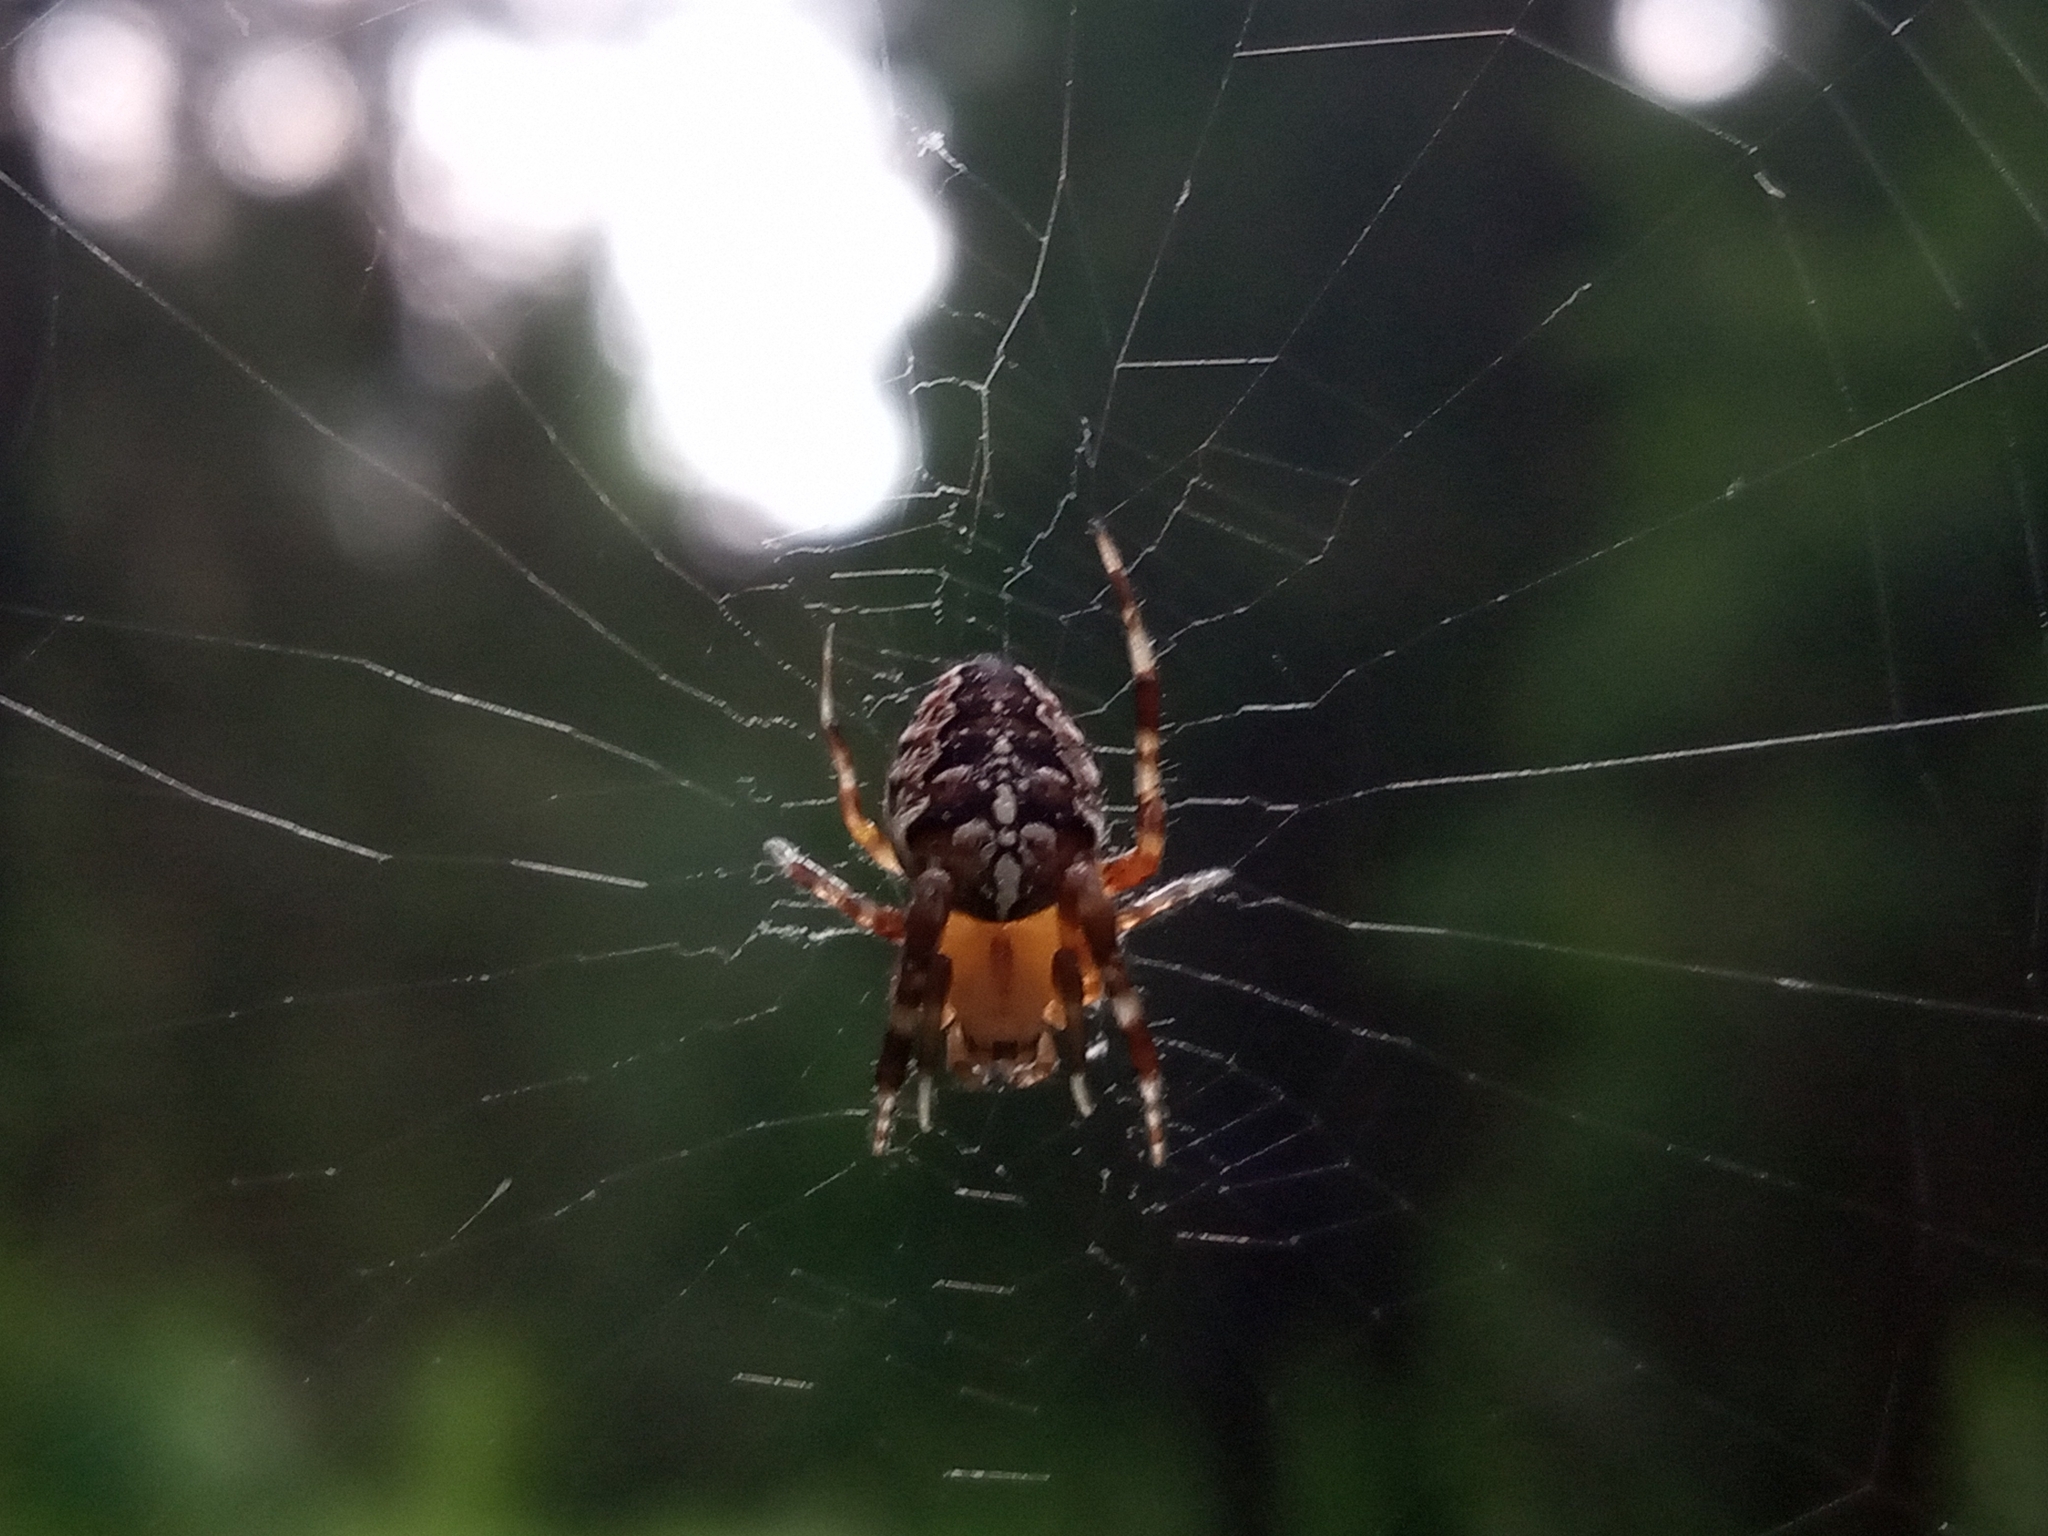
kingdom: Animalia
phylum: Arthropoda
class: Arachnida
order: Araneae
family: Araneidae
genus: Araneus
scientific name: Araneus diadematus
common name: Cross orbweaver
